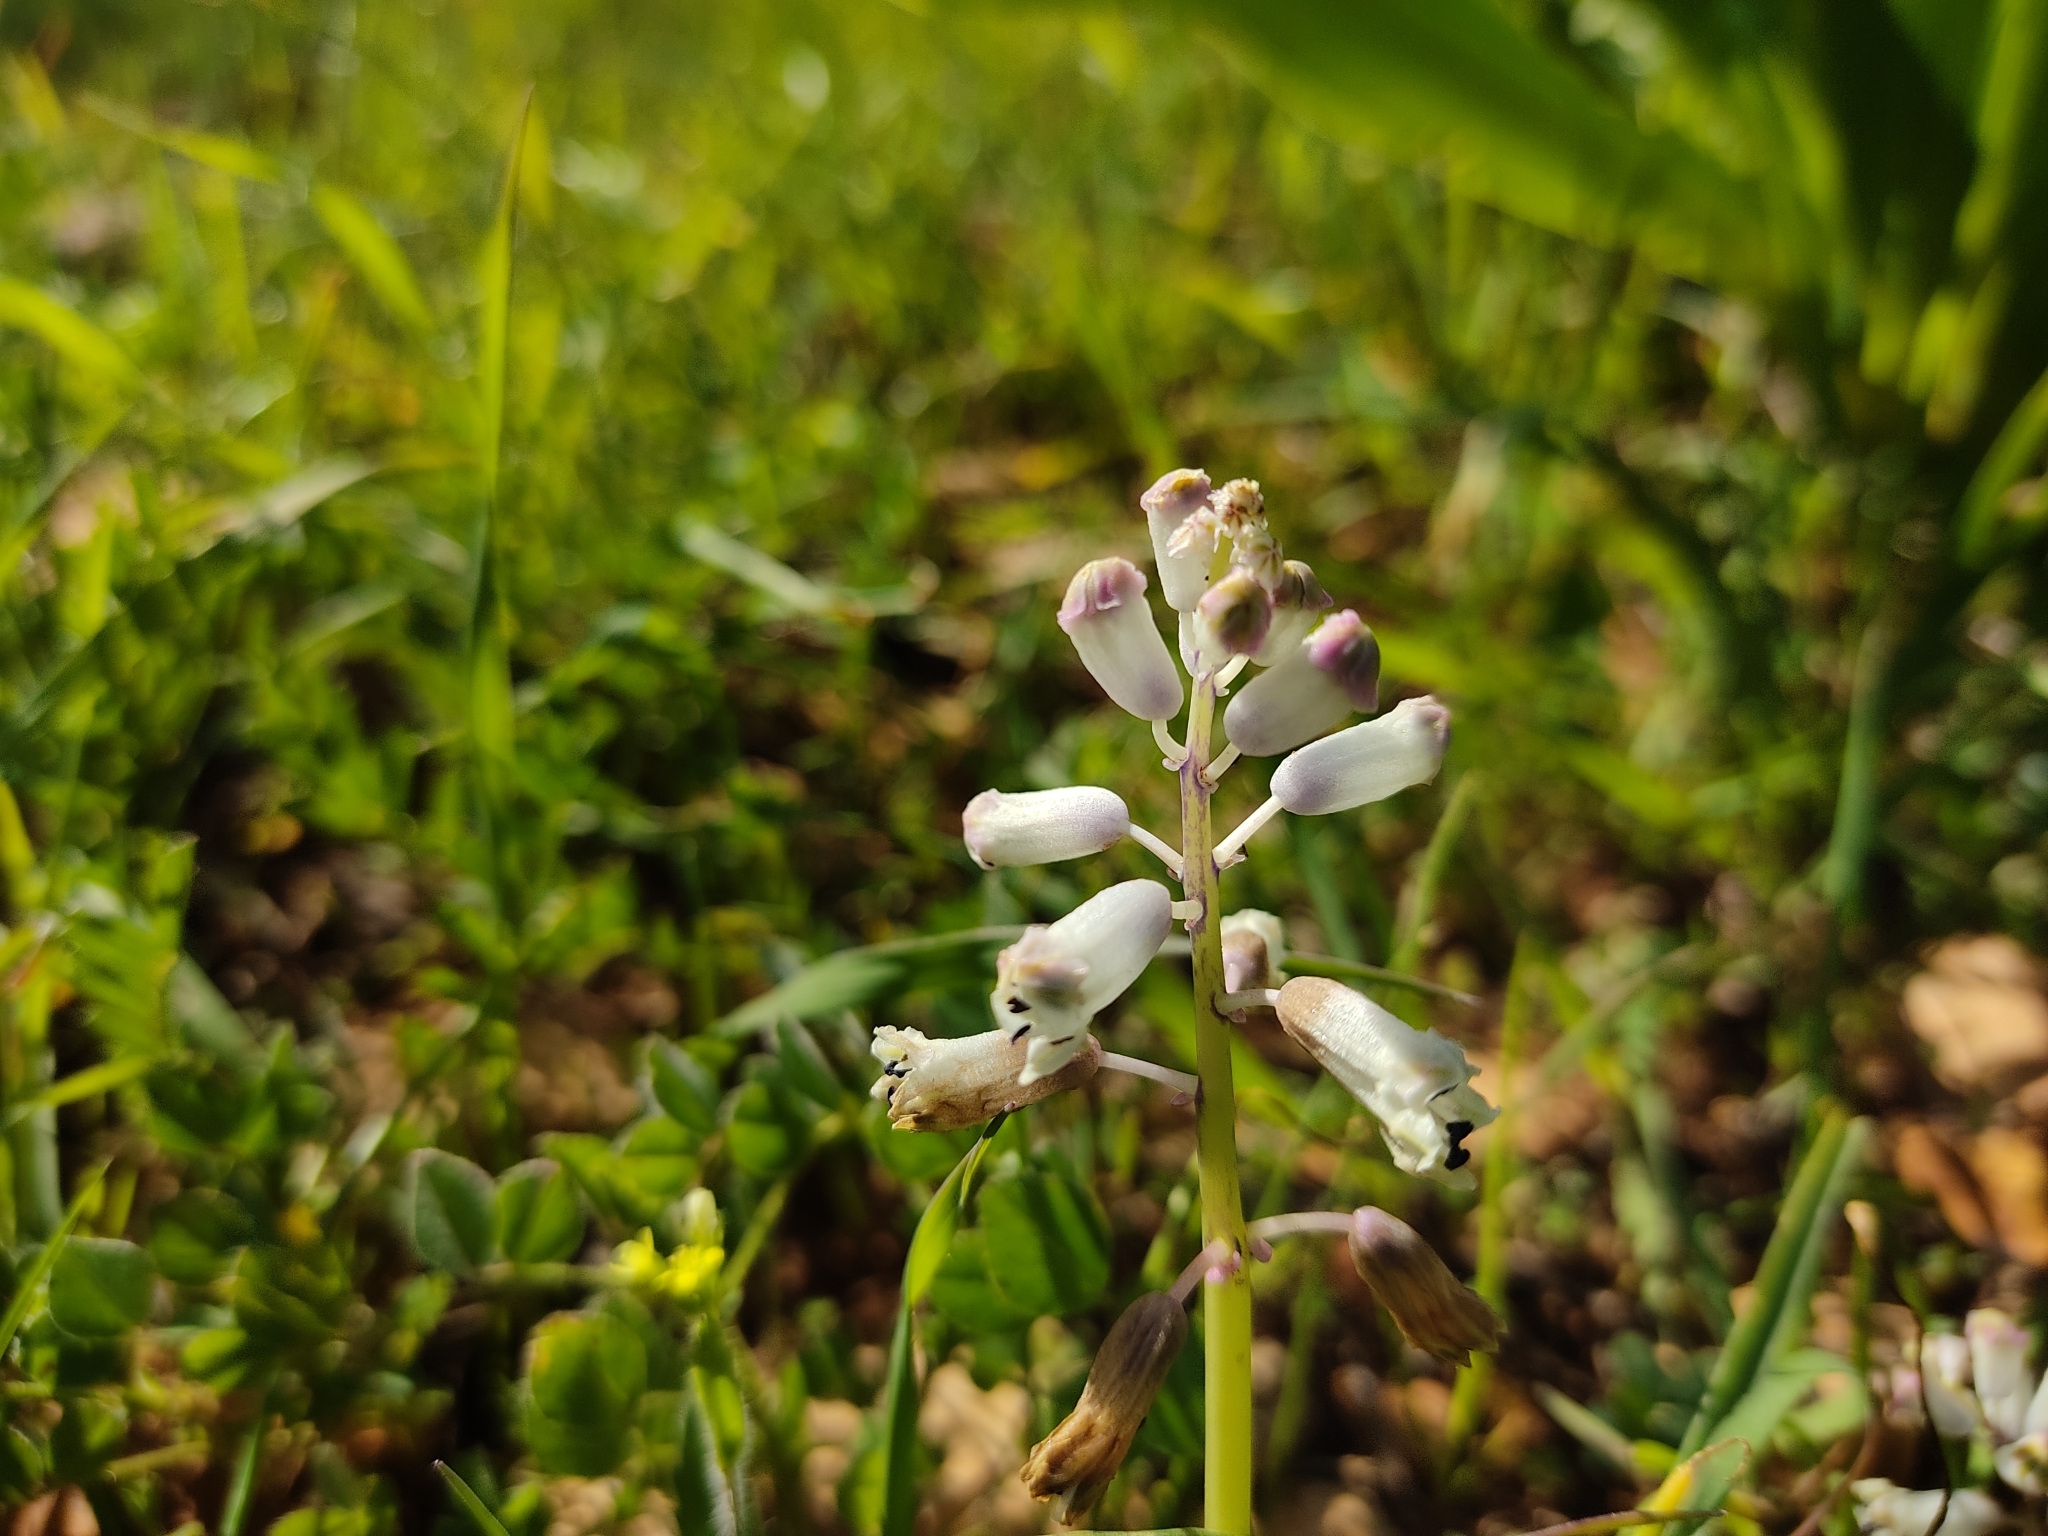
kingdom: Plantae
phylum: Tracheophyta
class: Liliopsida
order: Asparagales
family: Asparagaceae
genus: Bellevalia
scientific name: Bellevalia flexuosa
